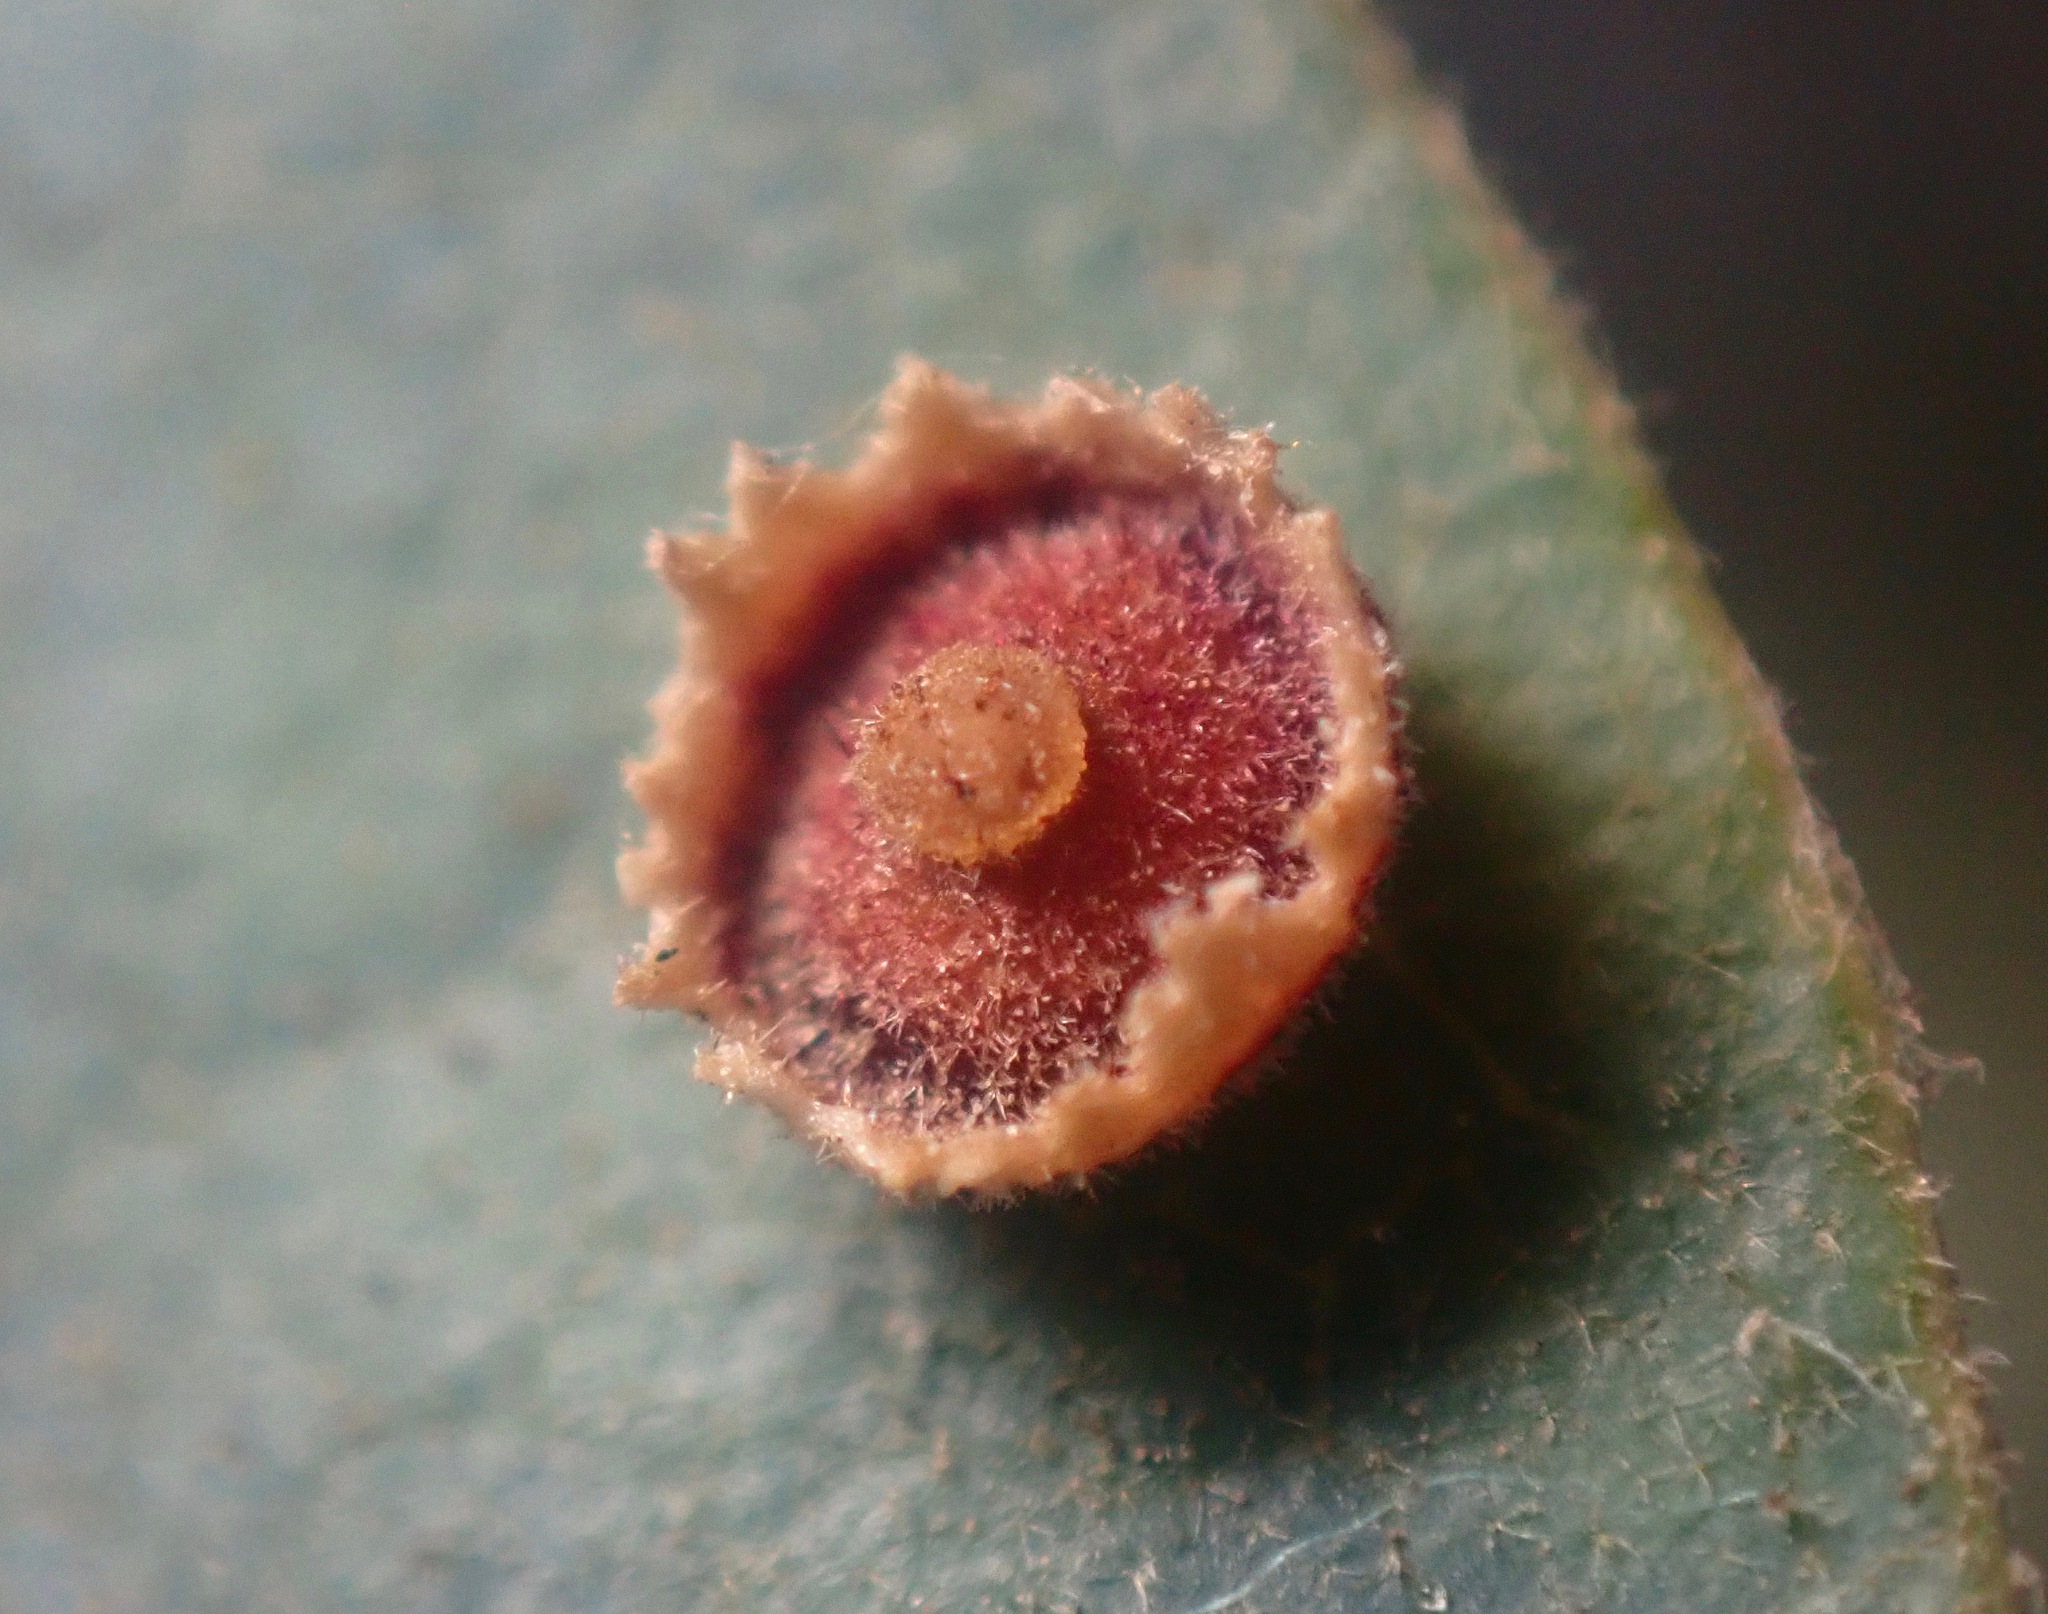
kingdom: Animalia
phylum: Arthropoda
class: Insecta
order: Hymenoptera
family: Cynipidae
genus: Andricus
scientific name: Andricus
